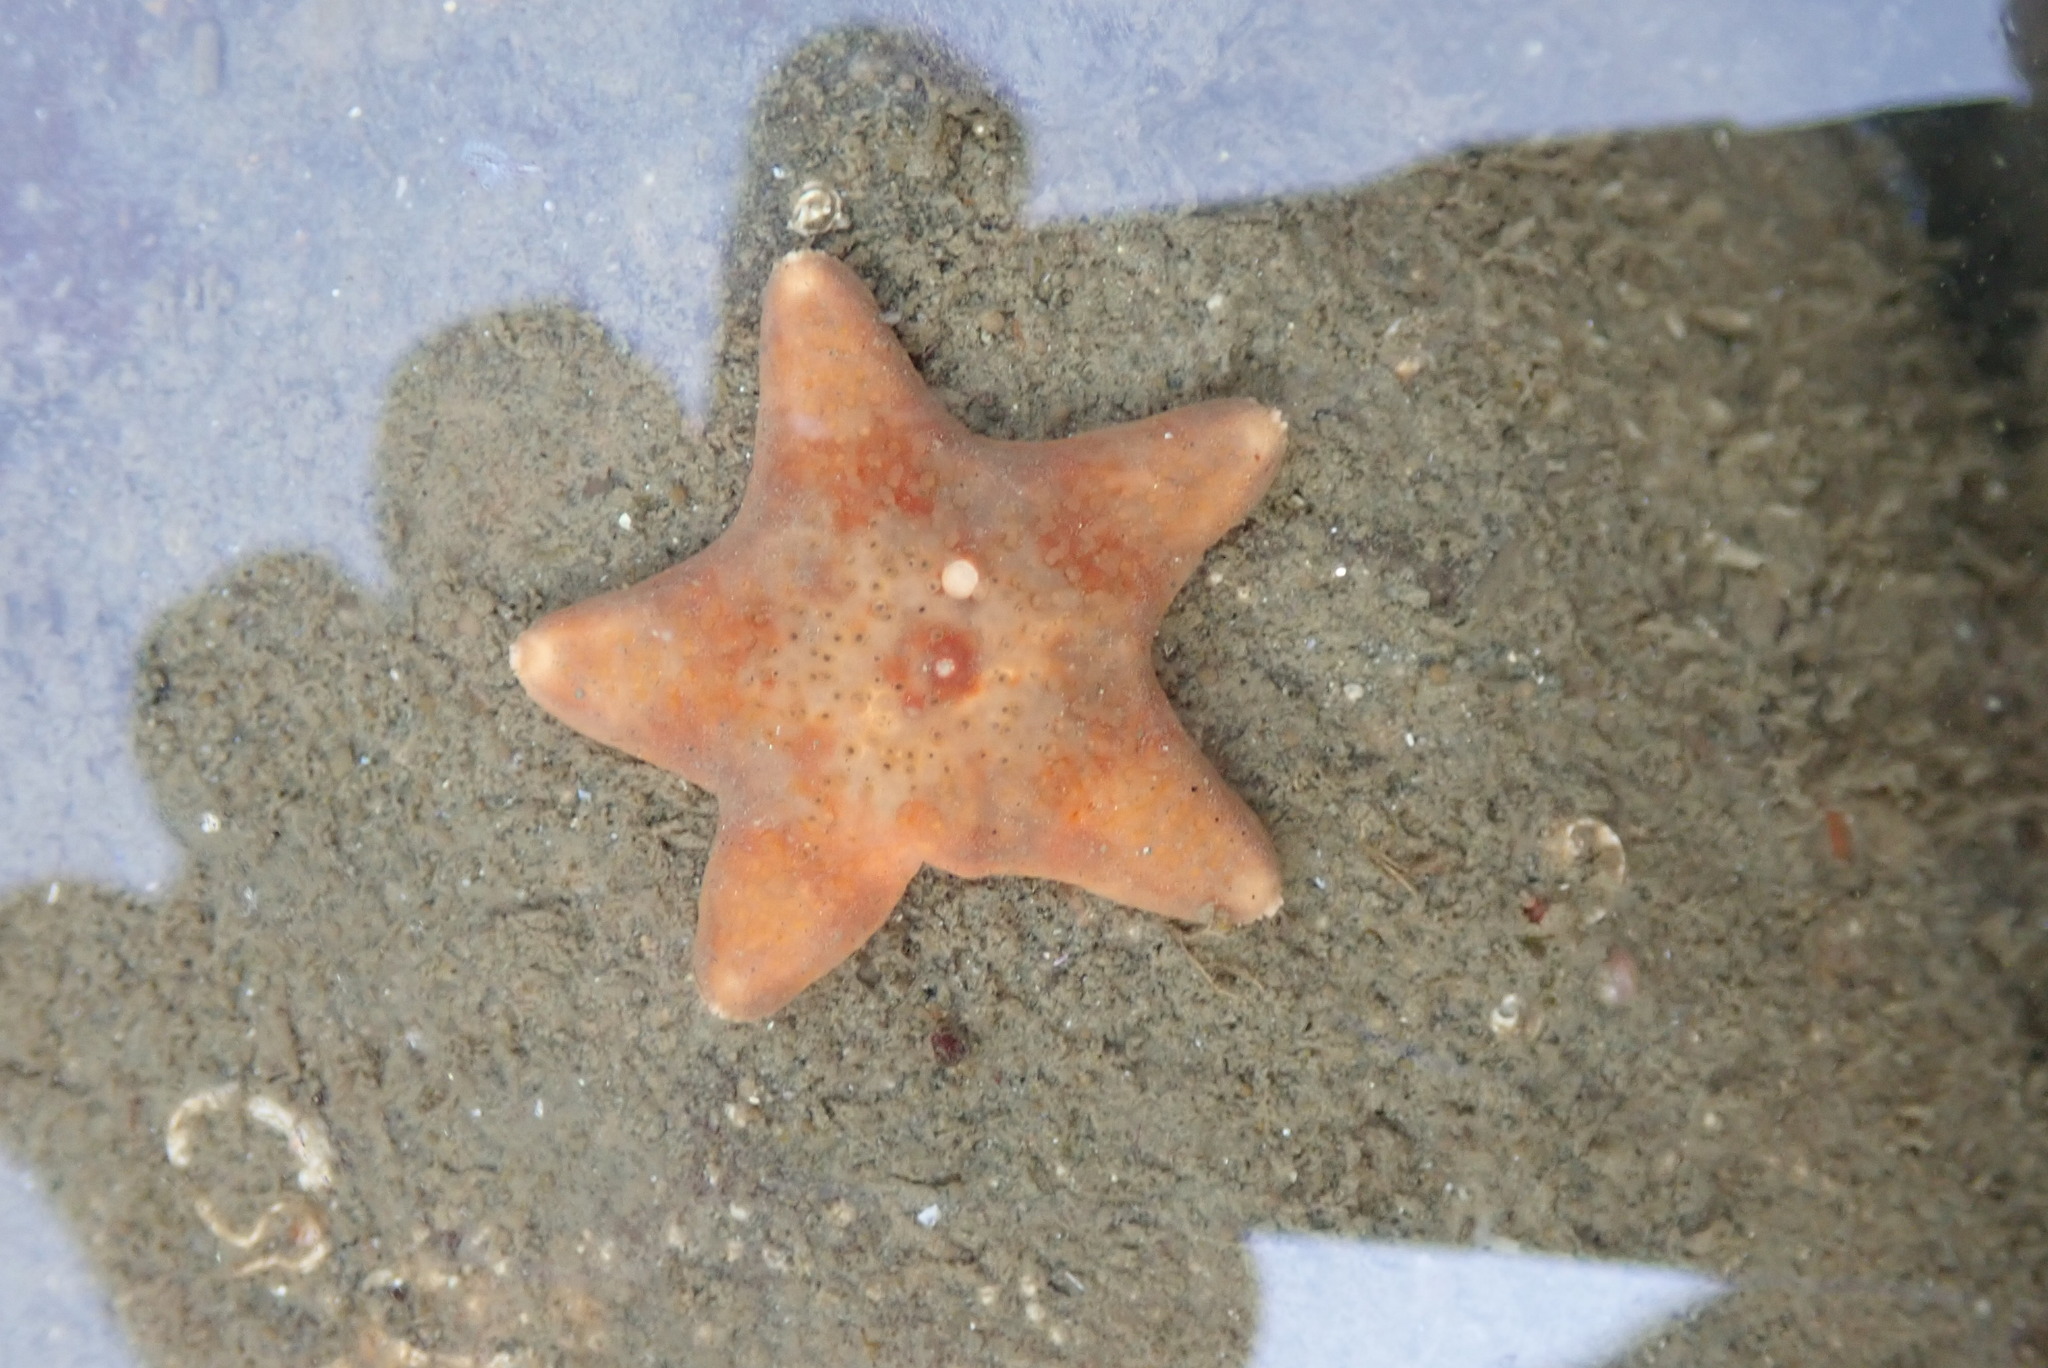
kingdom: Animalia
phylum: Echinodermata
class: Asteroidea
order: Valvatida
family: Asteropseidae
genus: Dermasterias
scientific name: Dermasterias imbricata
